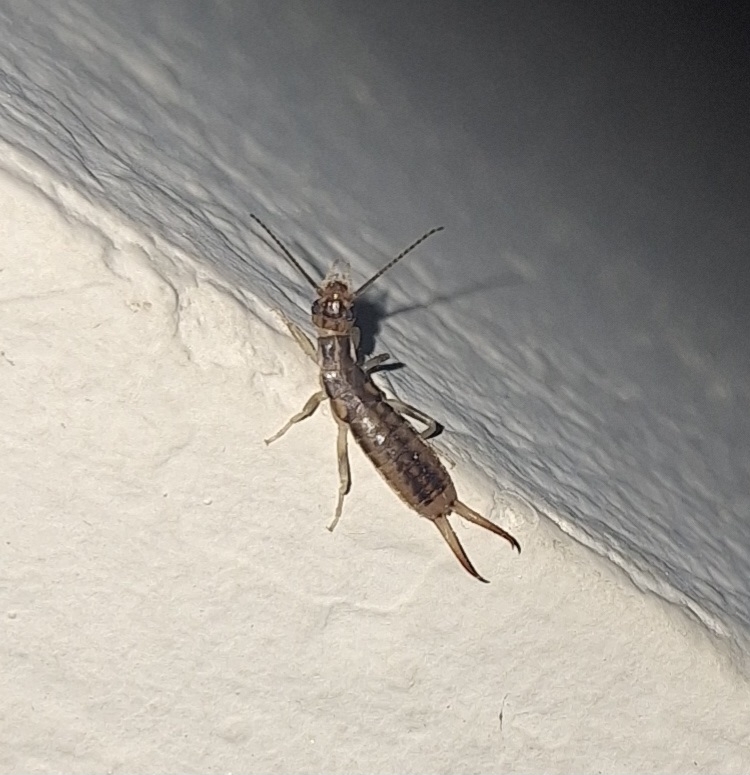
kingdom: Animalia
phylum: Arthropoda
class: Insecta
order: Dermaptera
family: Labiduridae
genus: Labidura
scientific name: Labidura riparia
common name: Striped earwig
